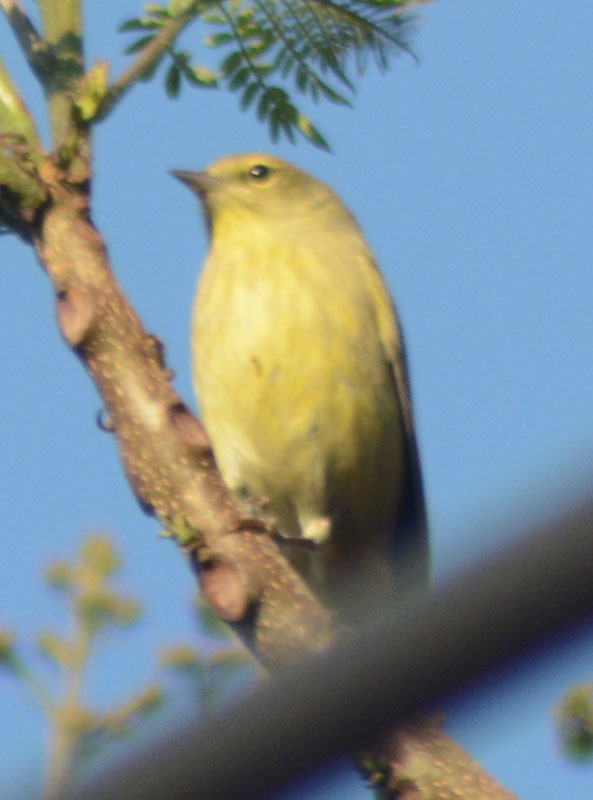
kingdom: Animalia
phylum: Chordata
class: Aves
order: Passeriformes
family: Parulidae
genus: Leiothlypis
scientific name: Leiothlypis celata
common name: Orange-crowned warbler
